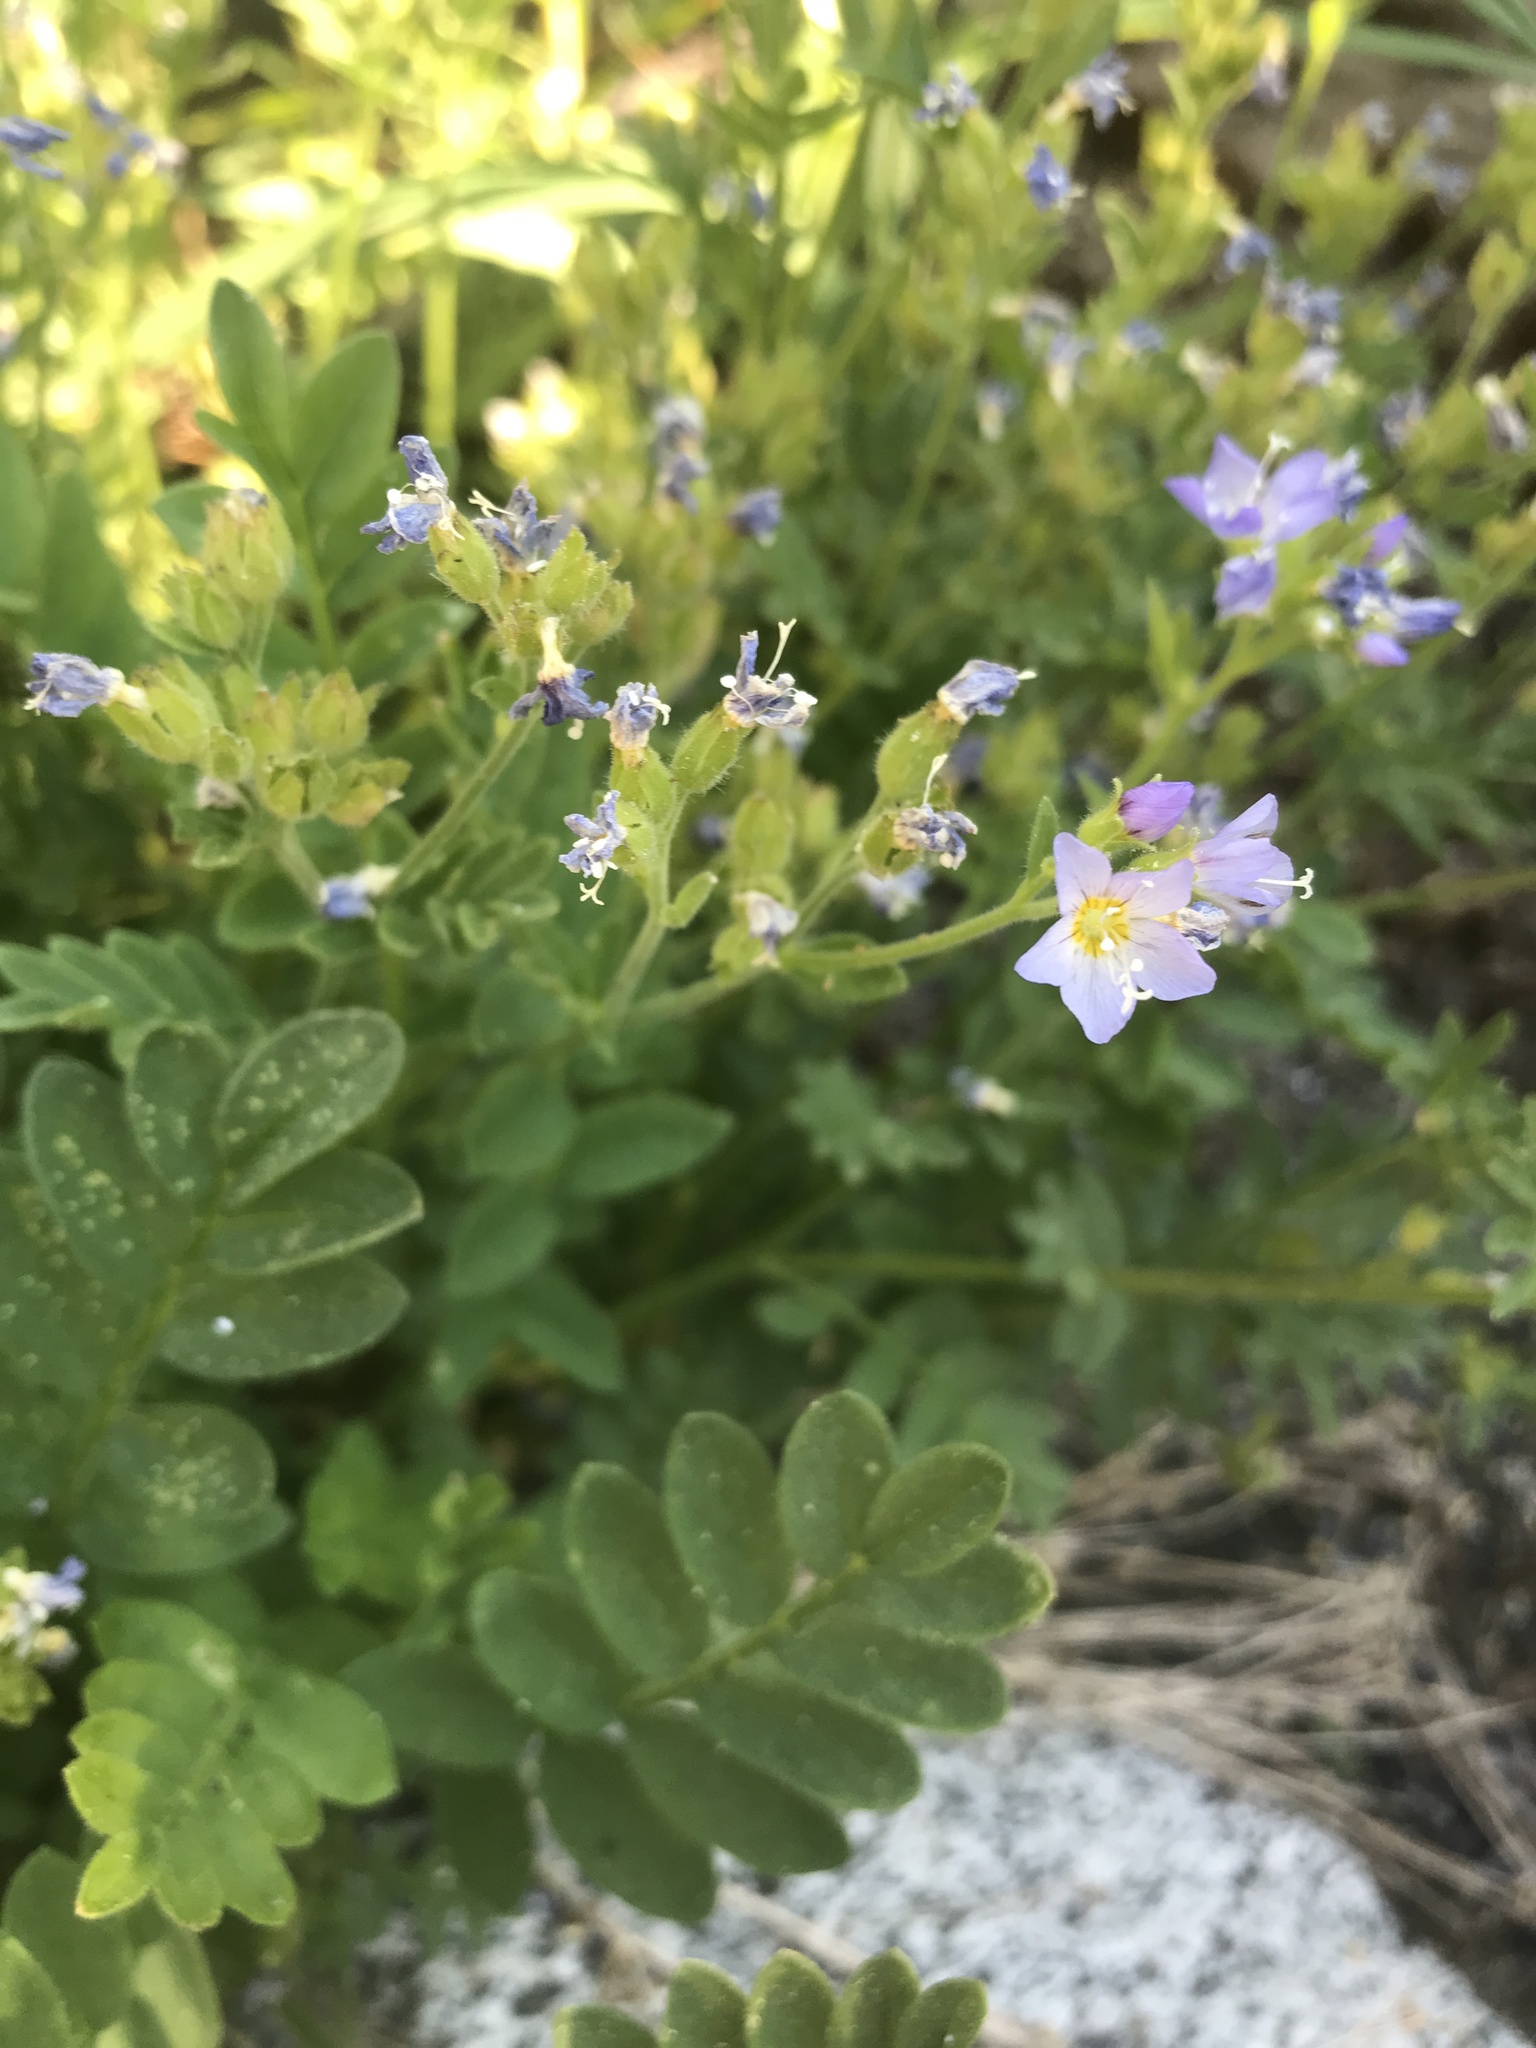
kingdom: Plantae
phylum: Tracheophyta
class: Magnoliopsida
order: Ericales
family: Polemoniaceae
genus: Polemonium
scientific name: Polemonium californicum
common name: California jacob's ladder
